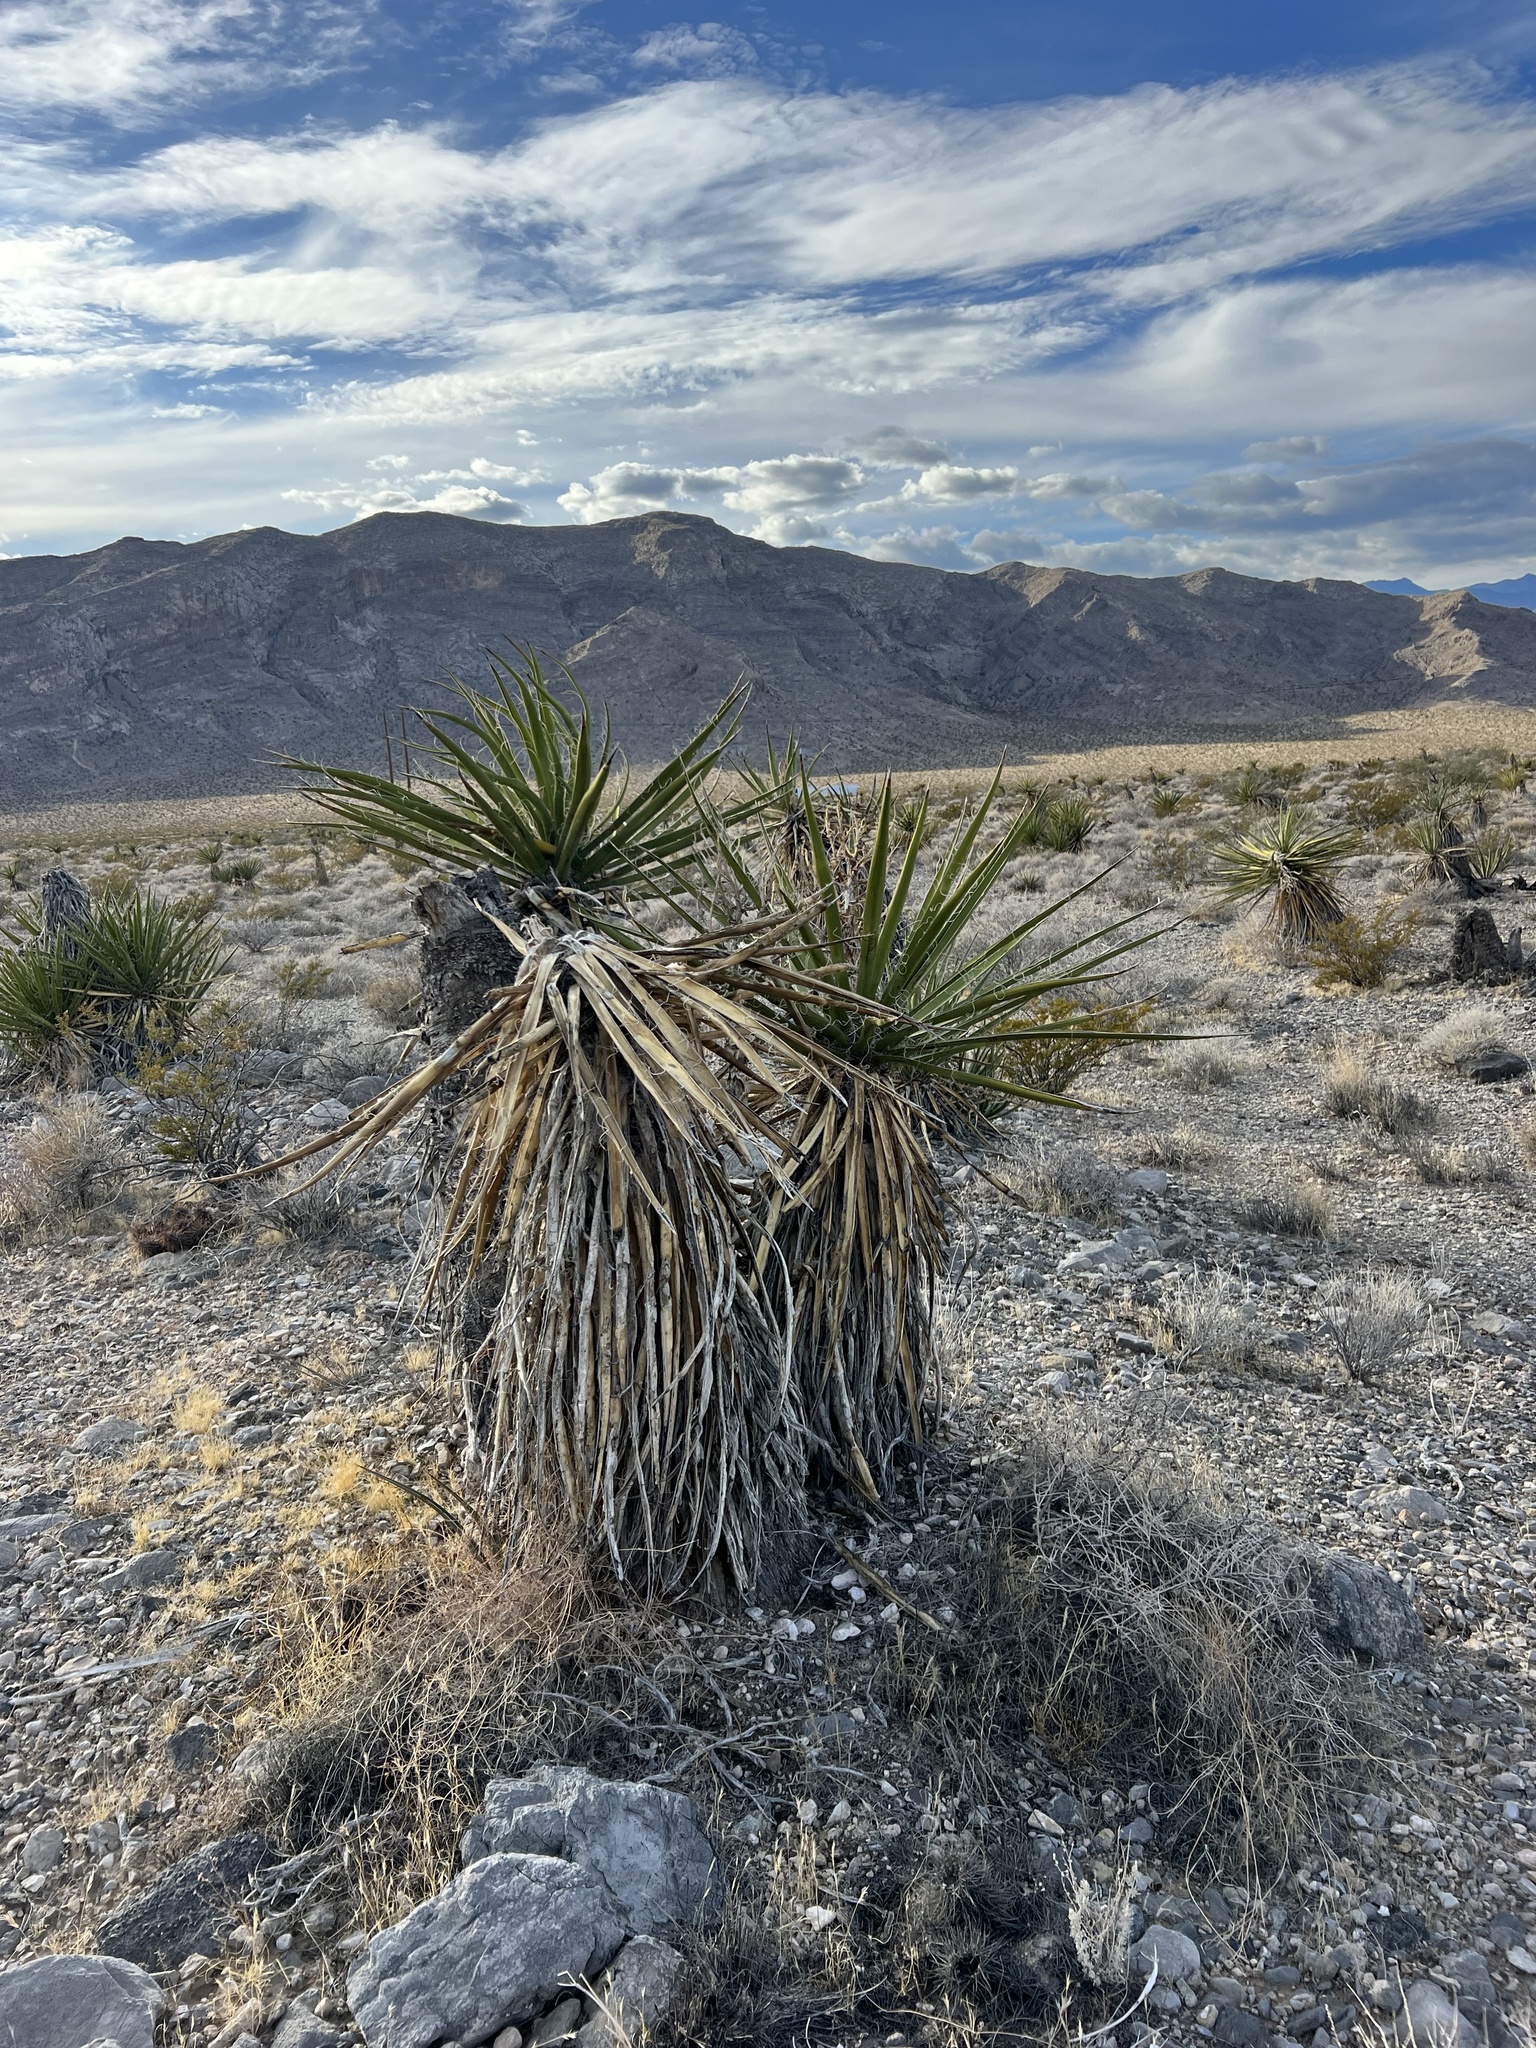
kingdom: Plantae
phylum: Tracheophyta
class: Liliopsida
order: Asparagales
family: Asparagaceae
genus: Yucca
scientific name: Yucca schidigera
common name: Mojave yucca
